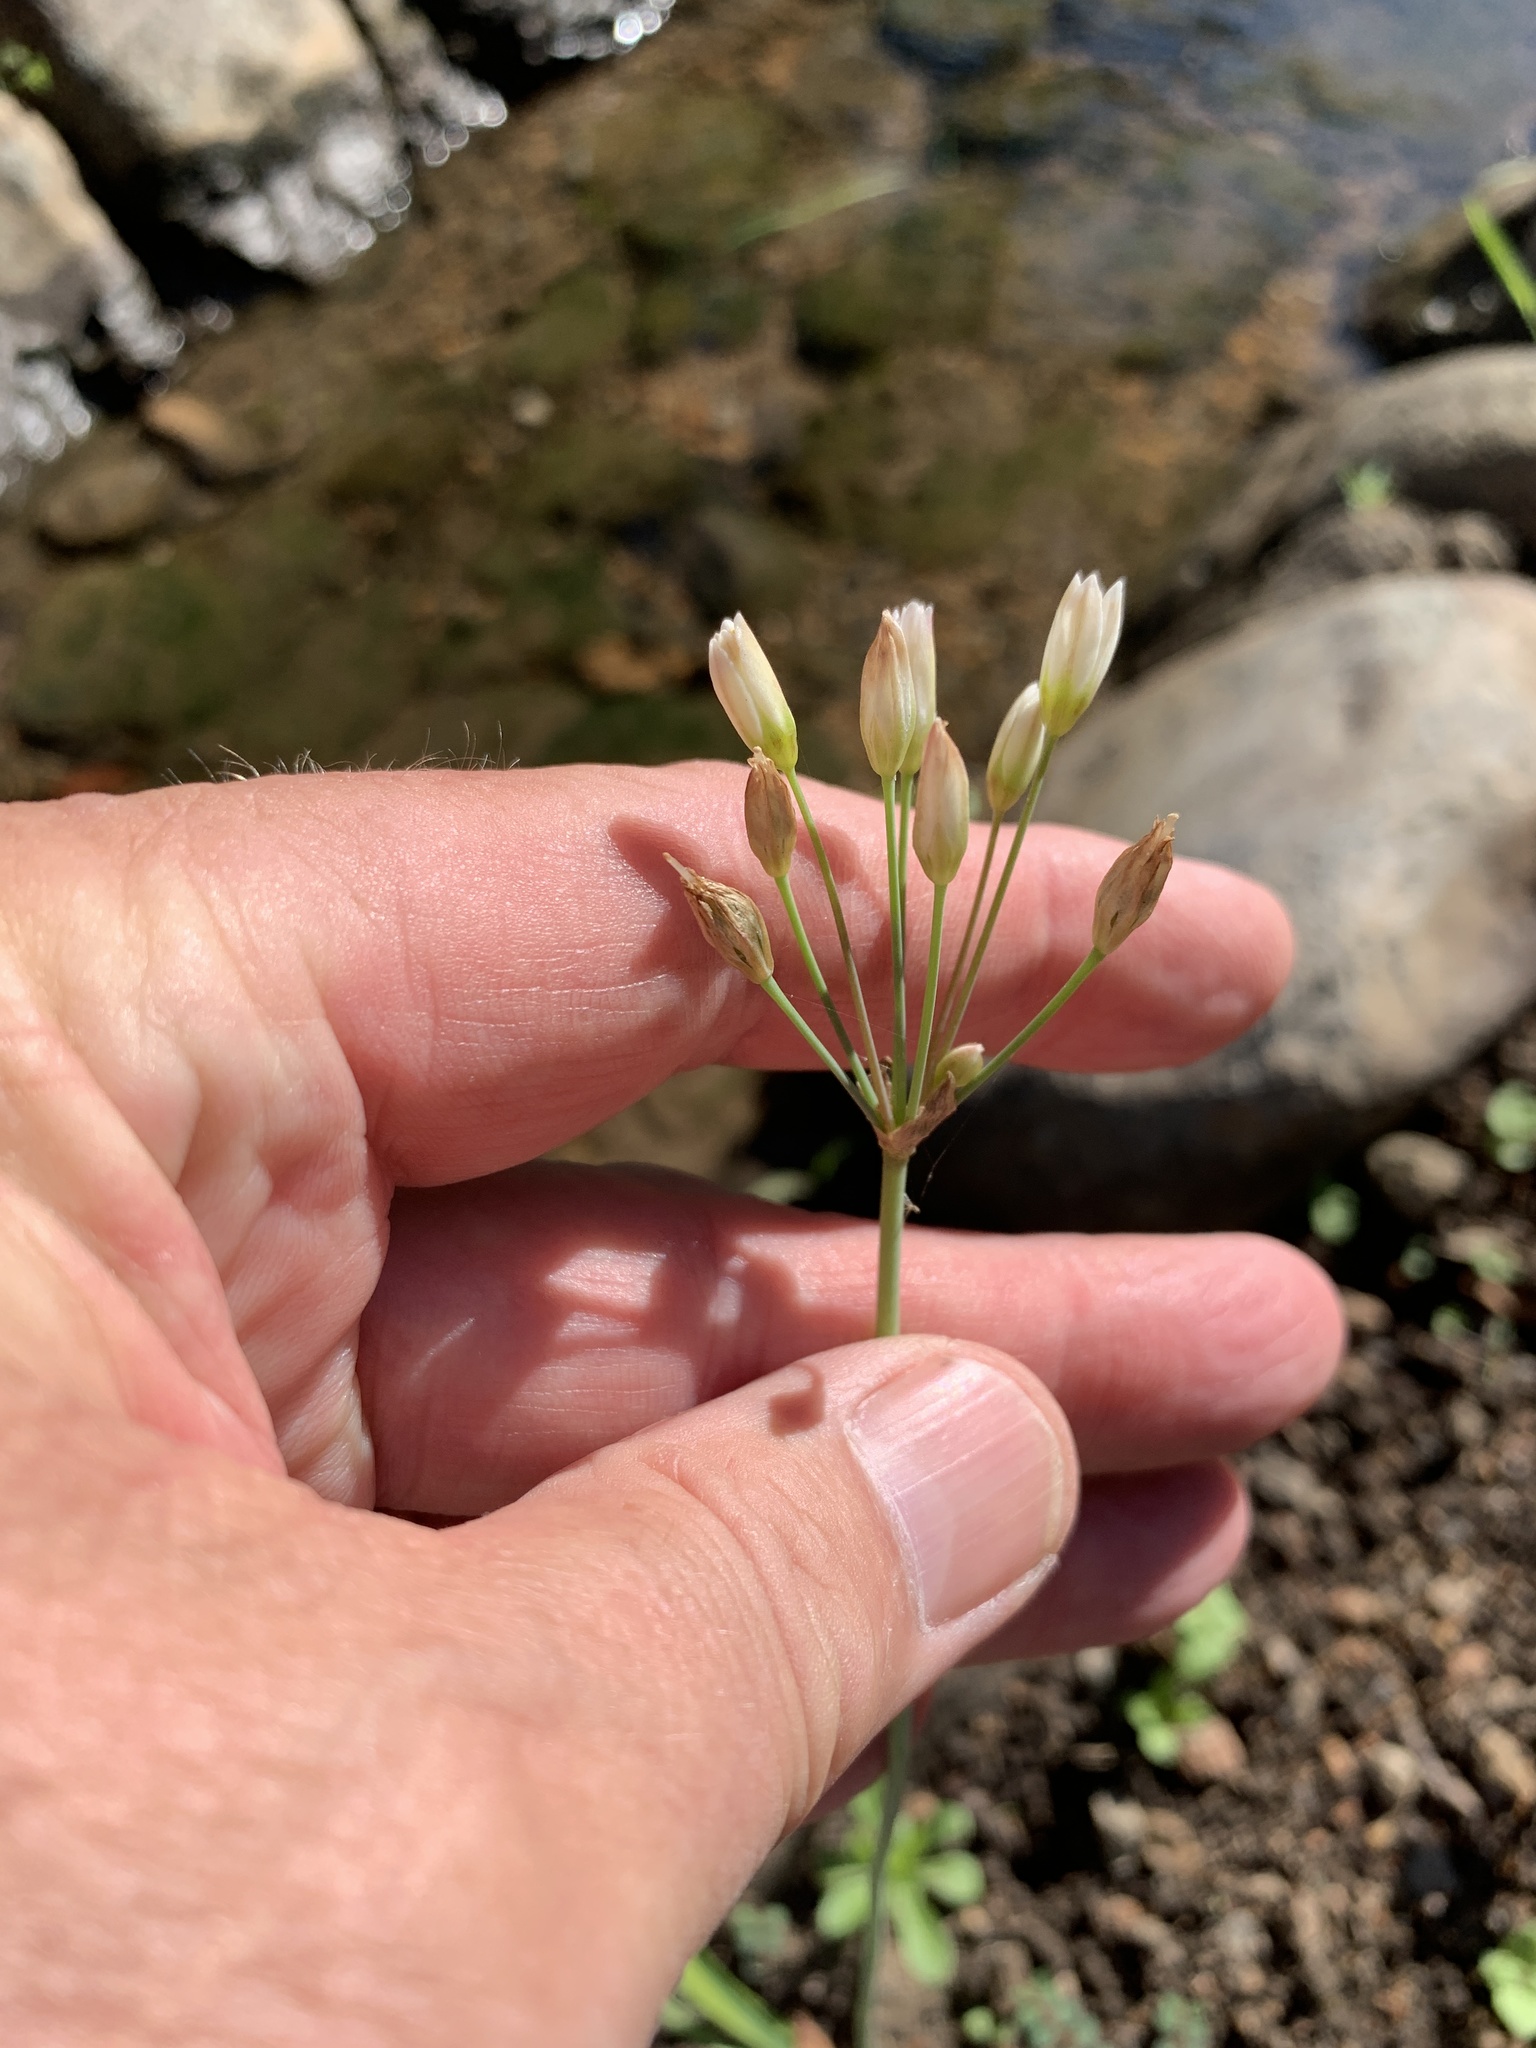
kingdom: Plantae
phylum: Tracheophyta
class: Liliopsida
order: Asparagales
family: Amaryllidaceae
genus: Nothoscordum
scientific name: Nothoscordum gracile
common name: Slender false garlic
